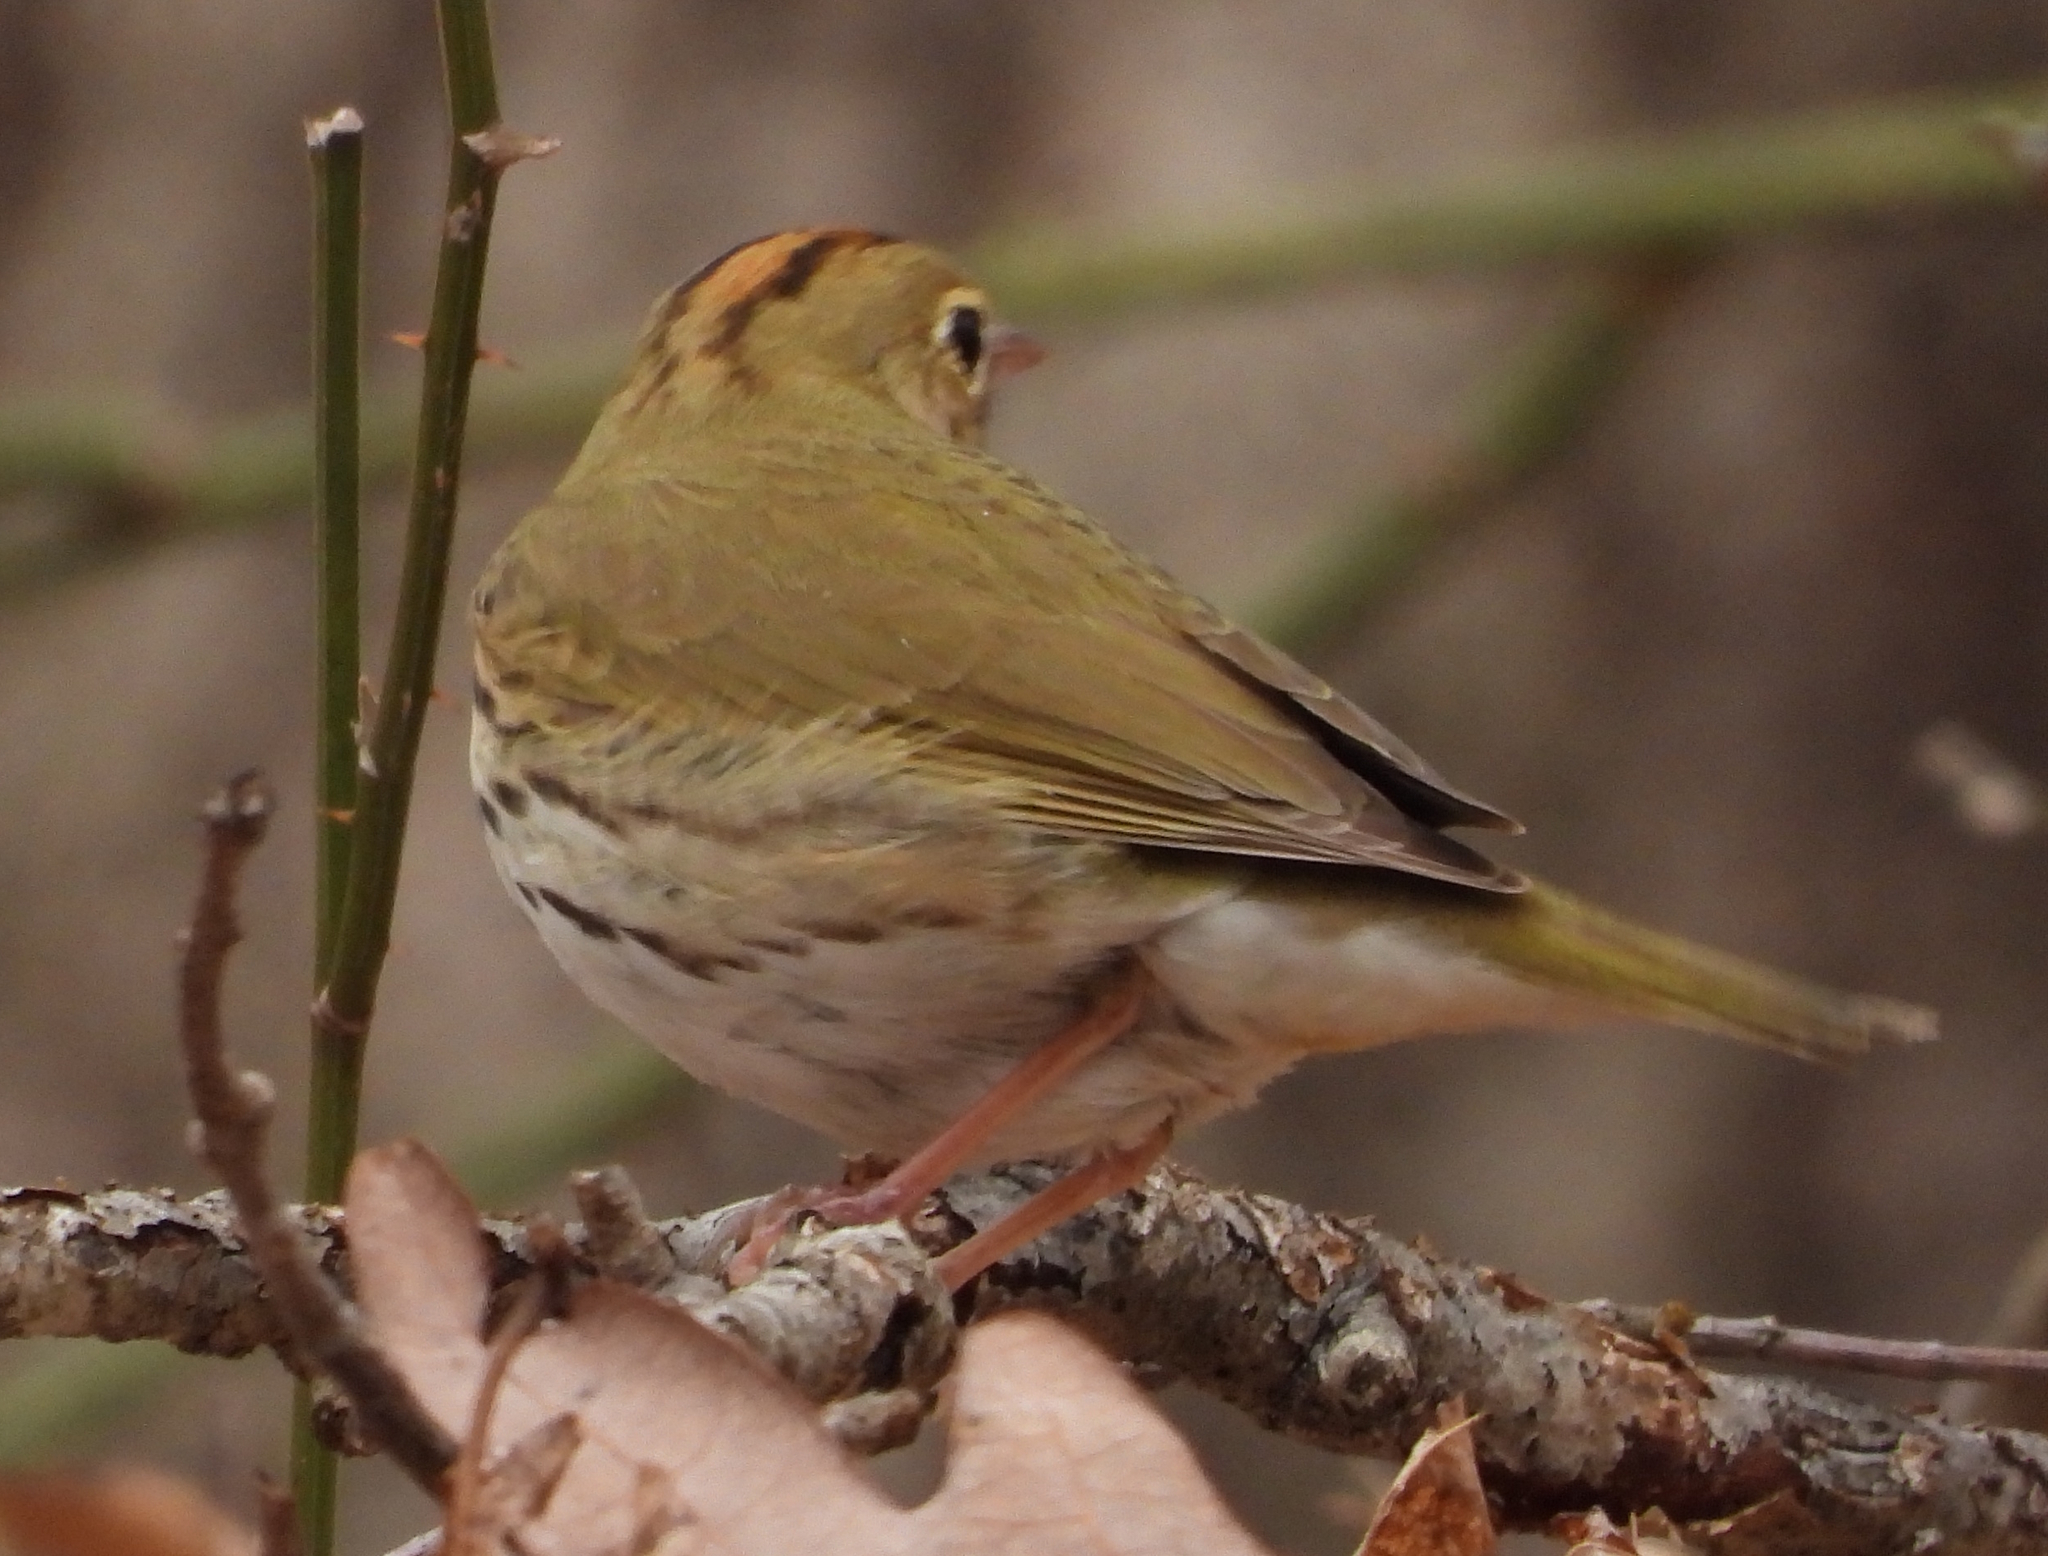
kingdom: Animalia
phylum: Chordata
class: Aves
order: Passeriformes
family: Parulidae
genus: Seiurus
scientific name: Seiurus aurocapilla
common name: Ovenbird
